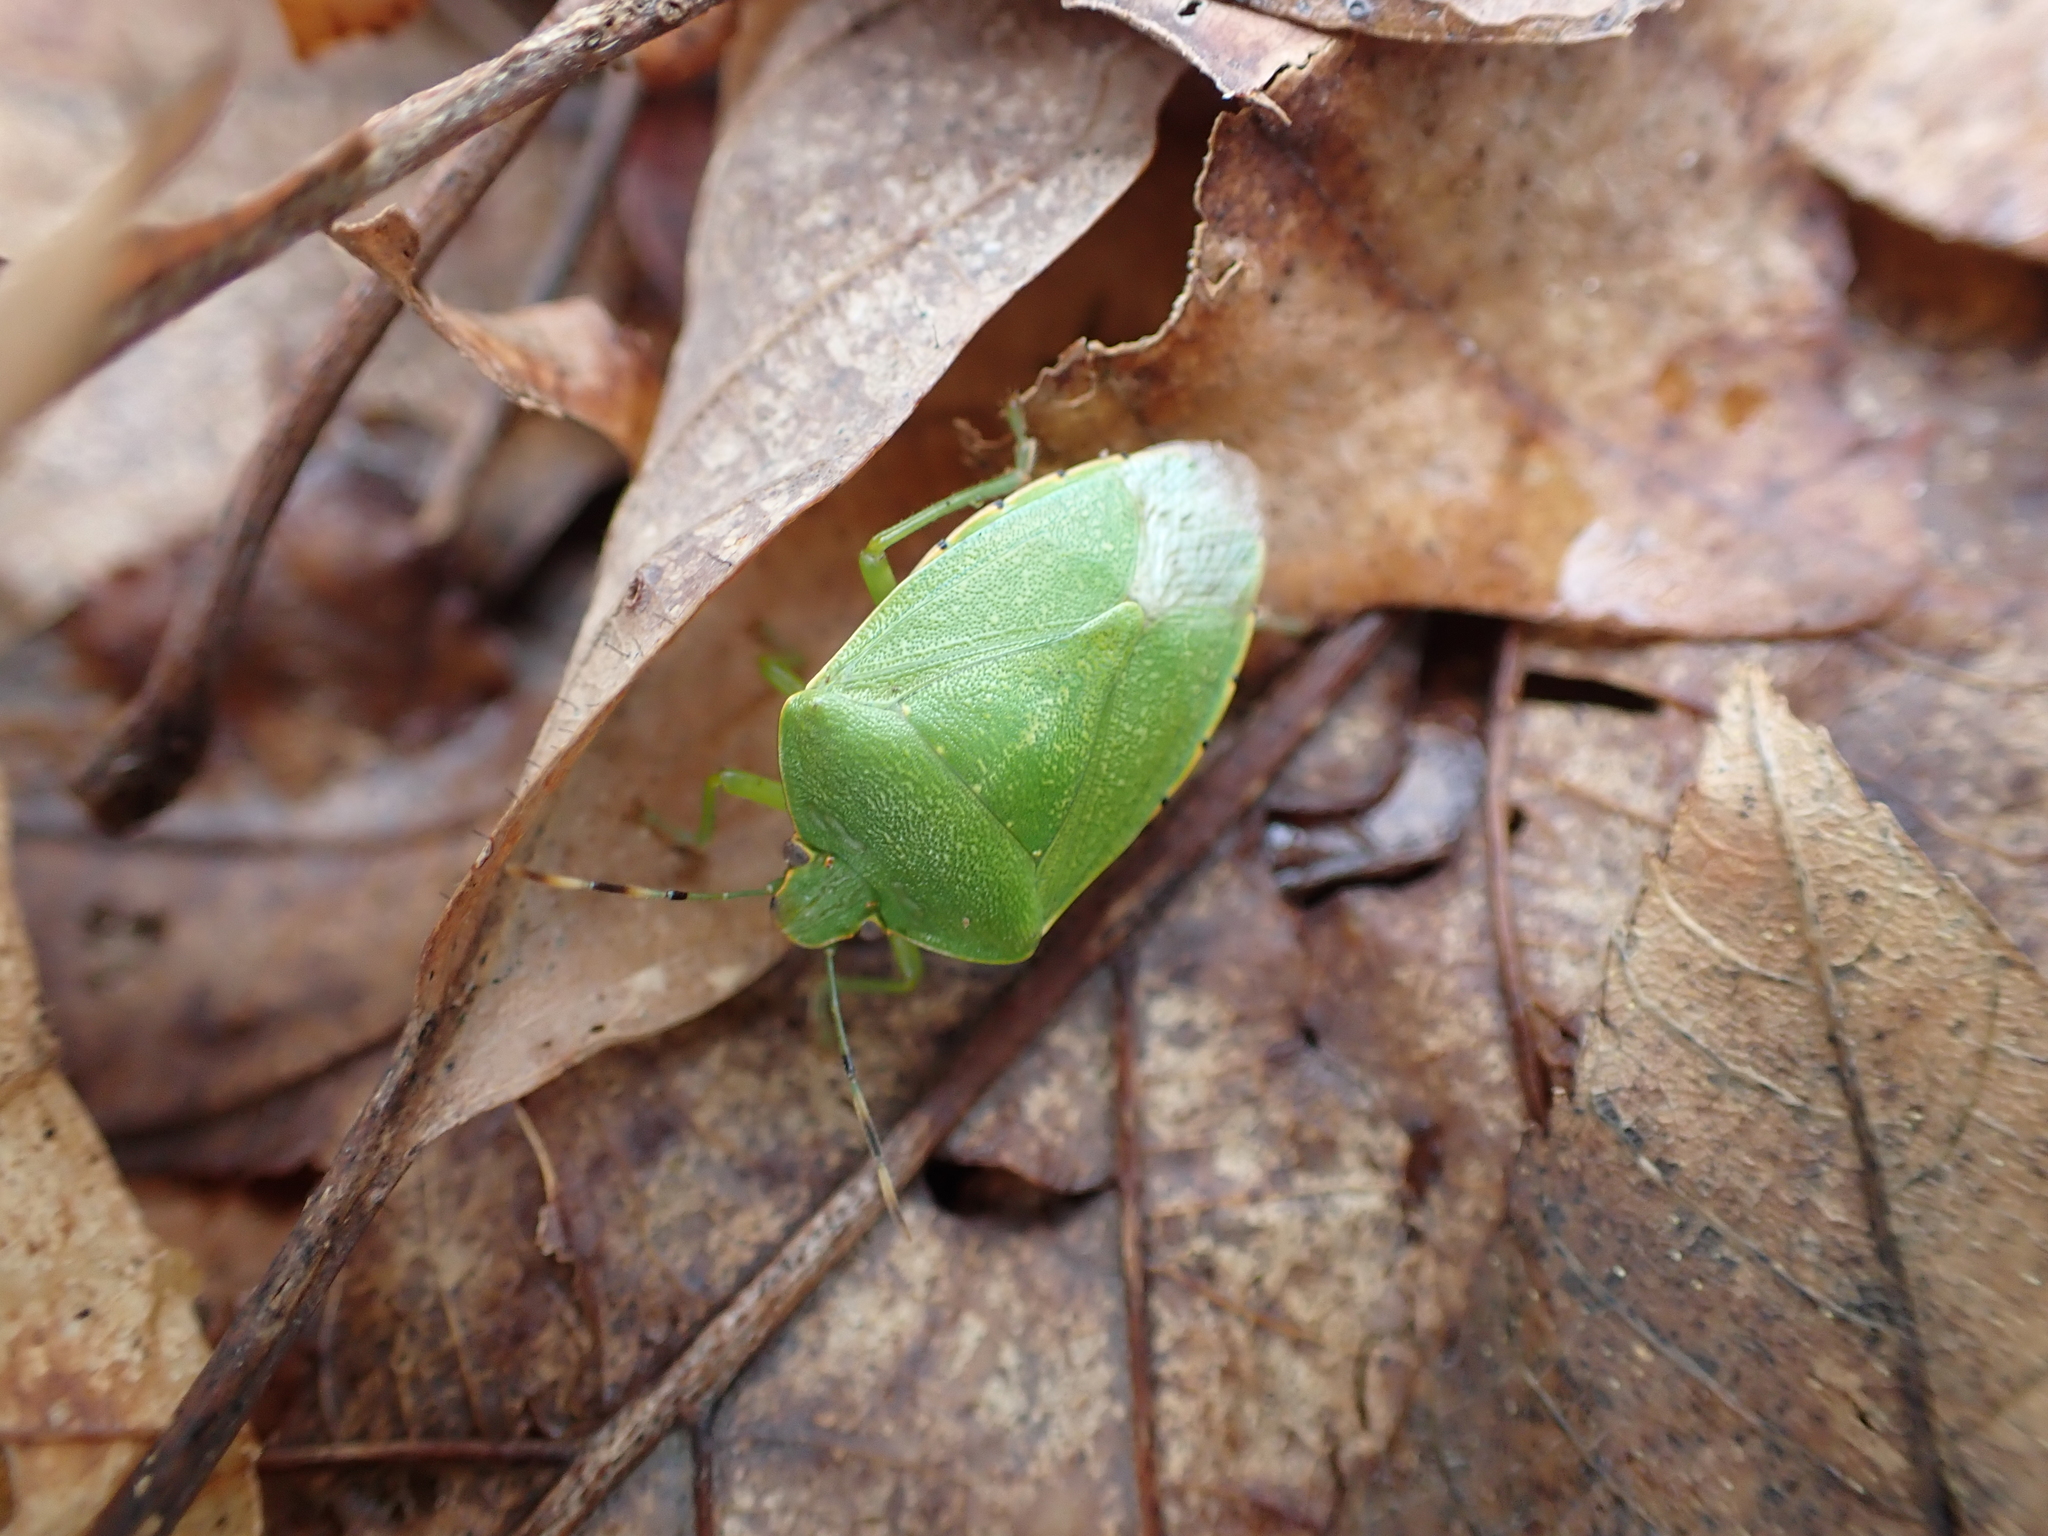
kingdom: Animalia
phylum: Arthropoda
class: Insecta
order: Hemiptera
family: Pentatomidae
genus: Chinavia
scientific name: Chinavia hilaris
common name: Green stink bug
